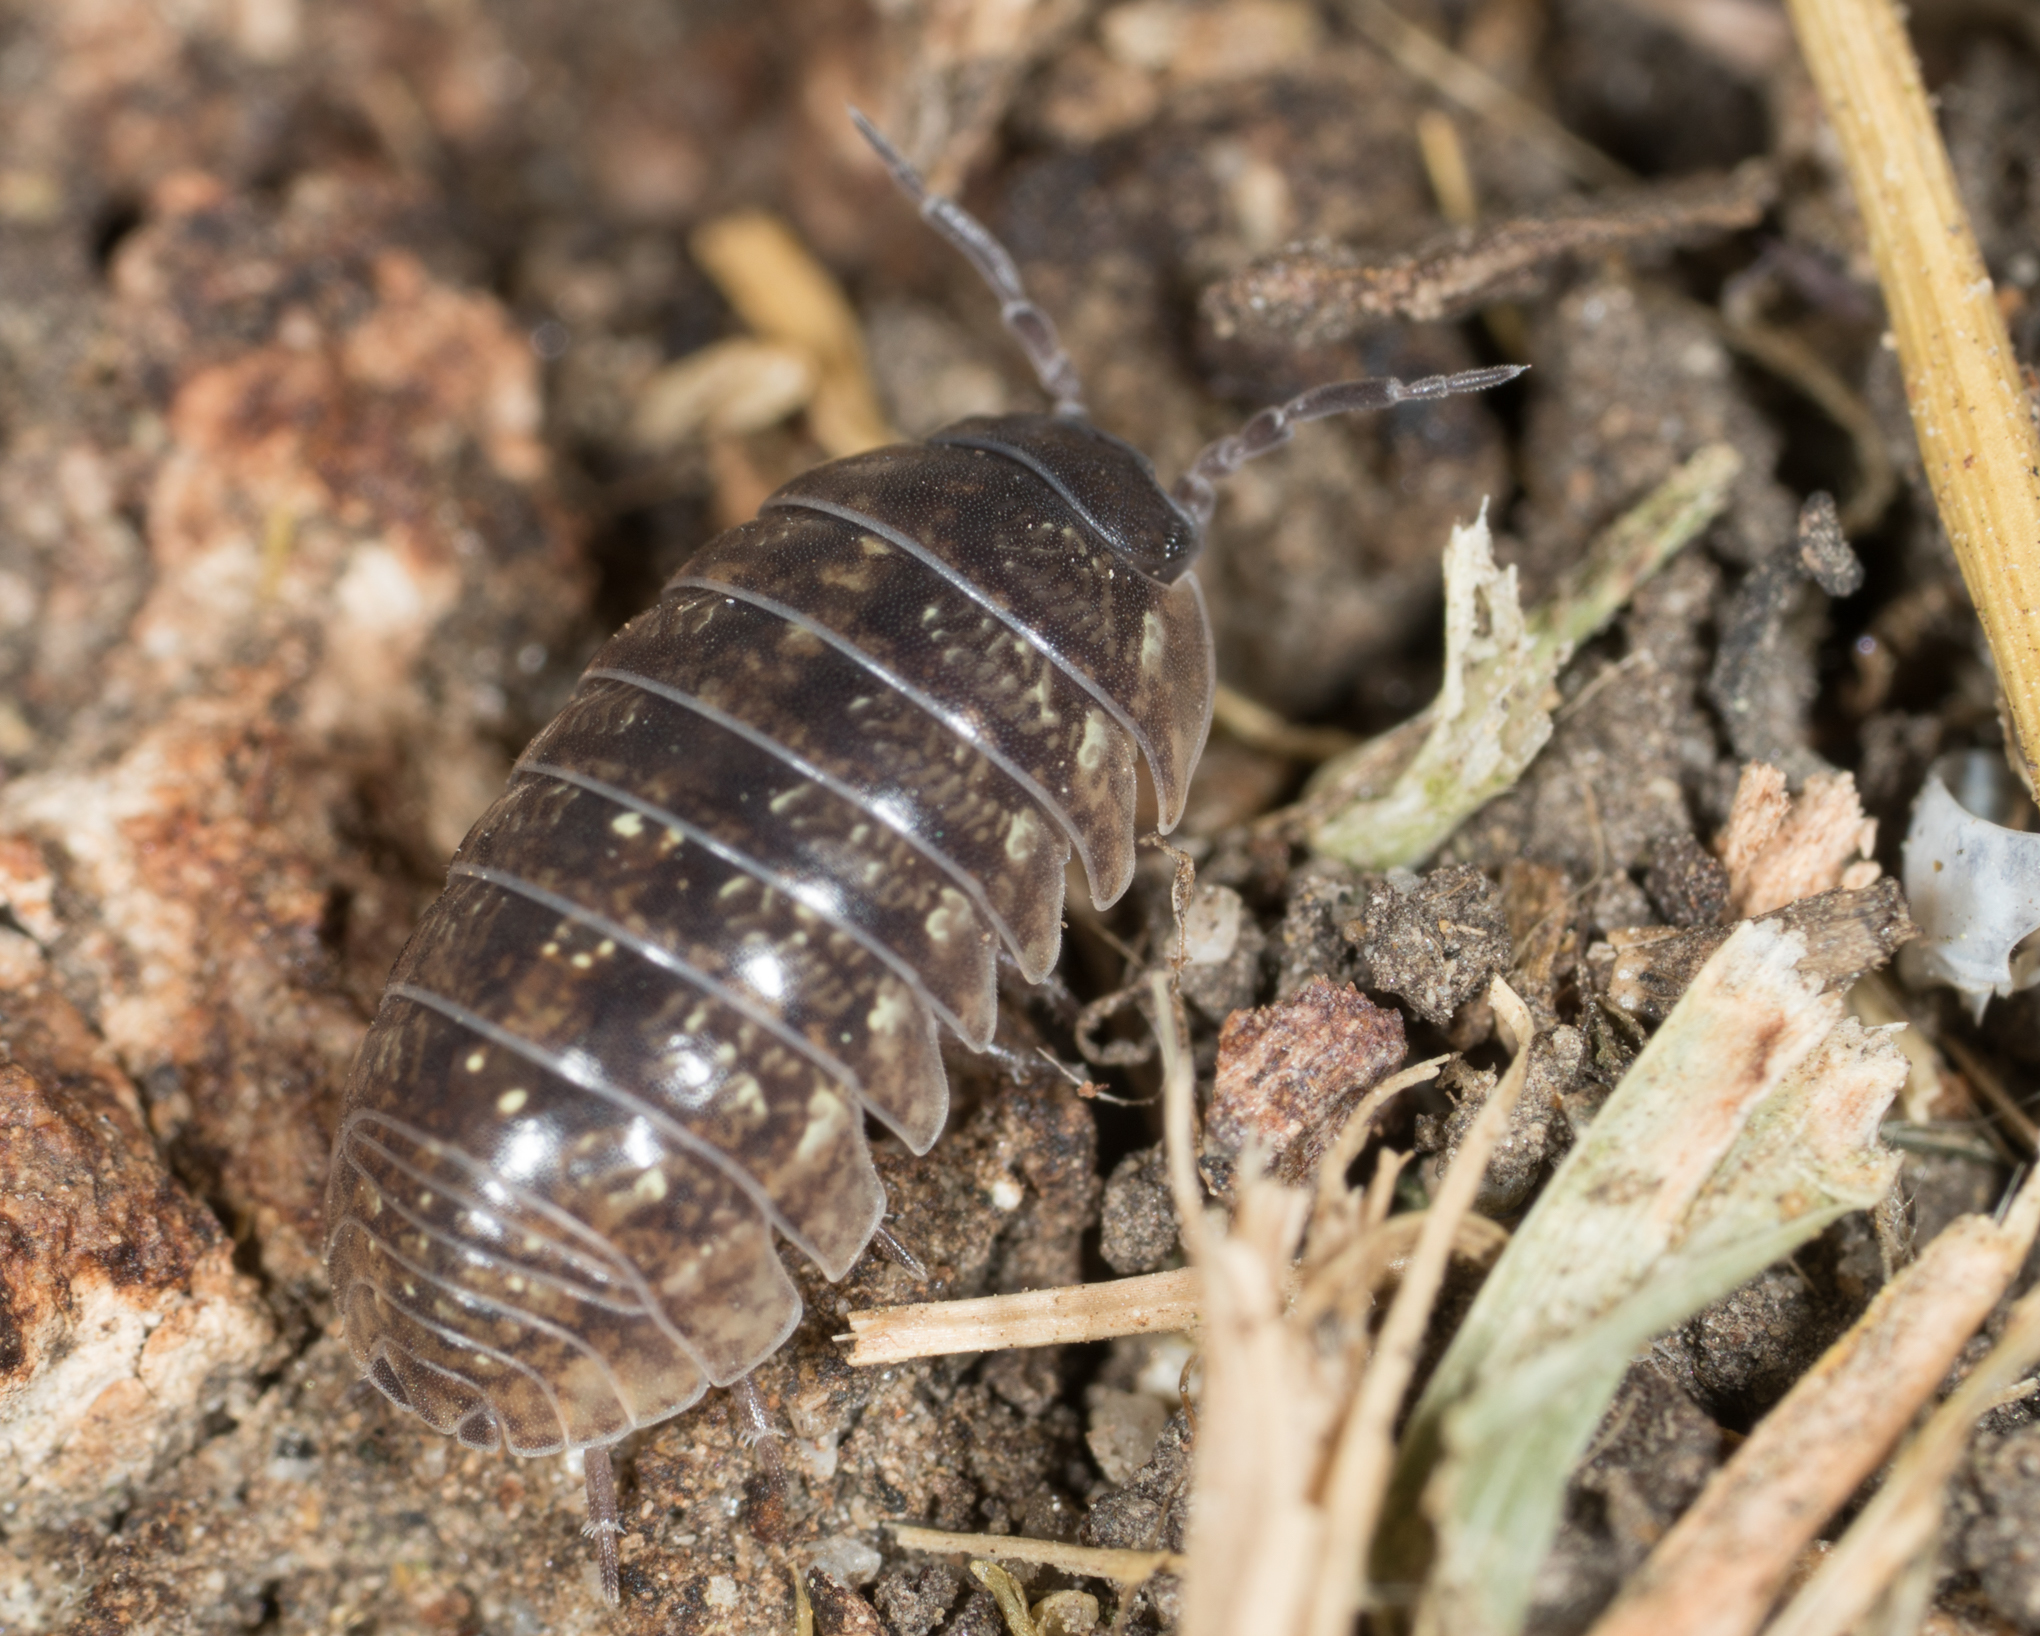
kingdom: Animalia
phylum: Arthropoda
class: Malacostraca
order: Isopoda
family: Armadillidiidae
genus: Armadillidium
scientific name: Armadillidium vulgare
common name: Common pill woodlouse
